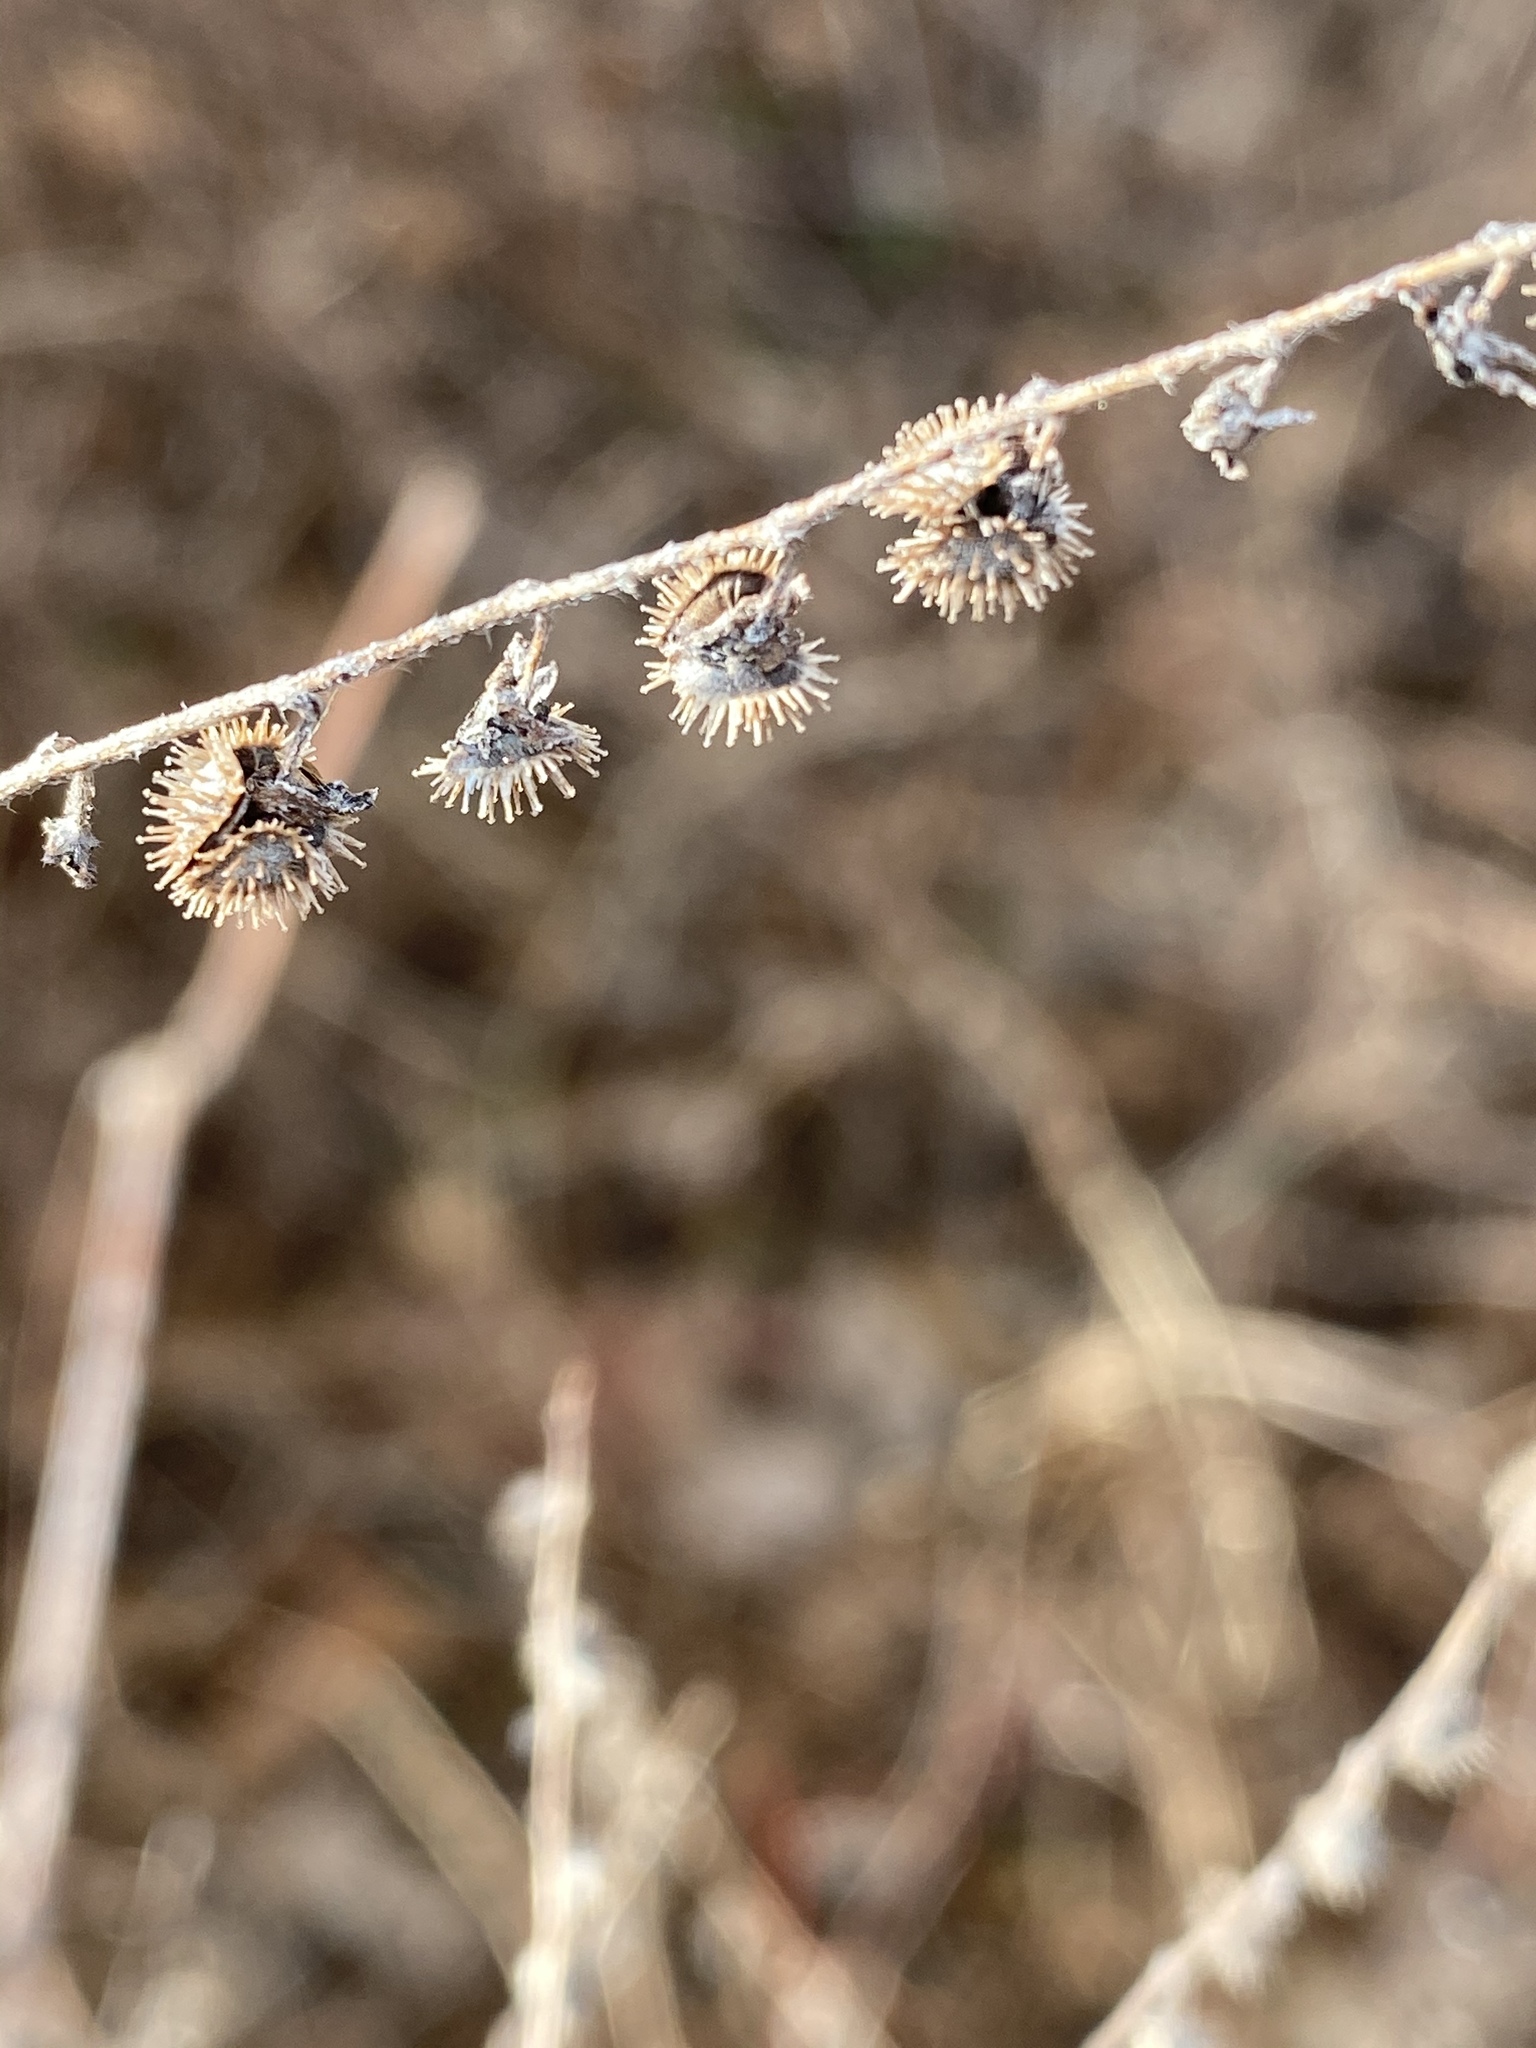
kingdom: Plantae
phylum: Tracheophyta
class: Magnoliopsida
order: Boraginales
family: Boraginaceae
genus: Hackelia
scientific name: Hackelia virginiana
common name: Beggar's-lice
